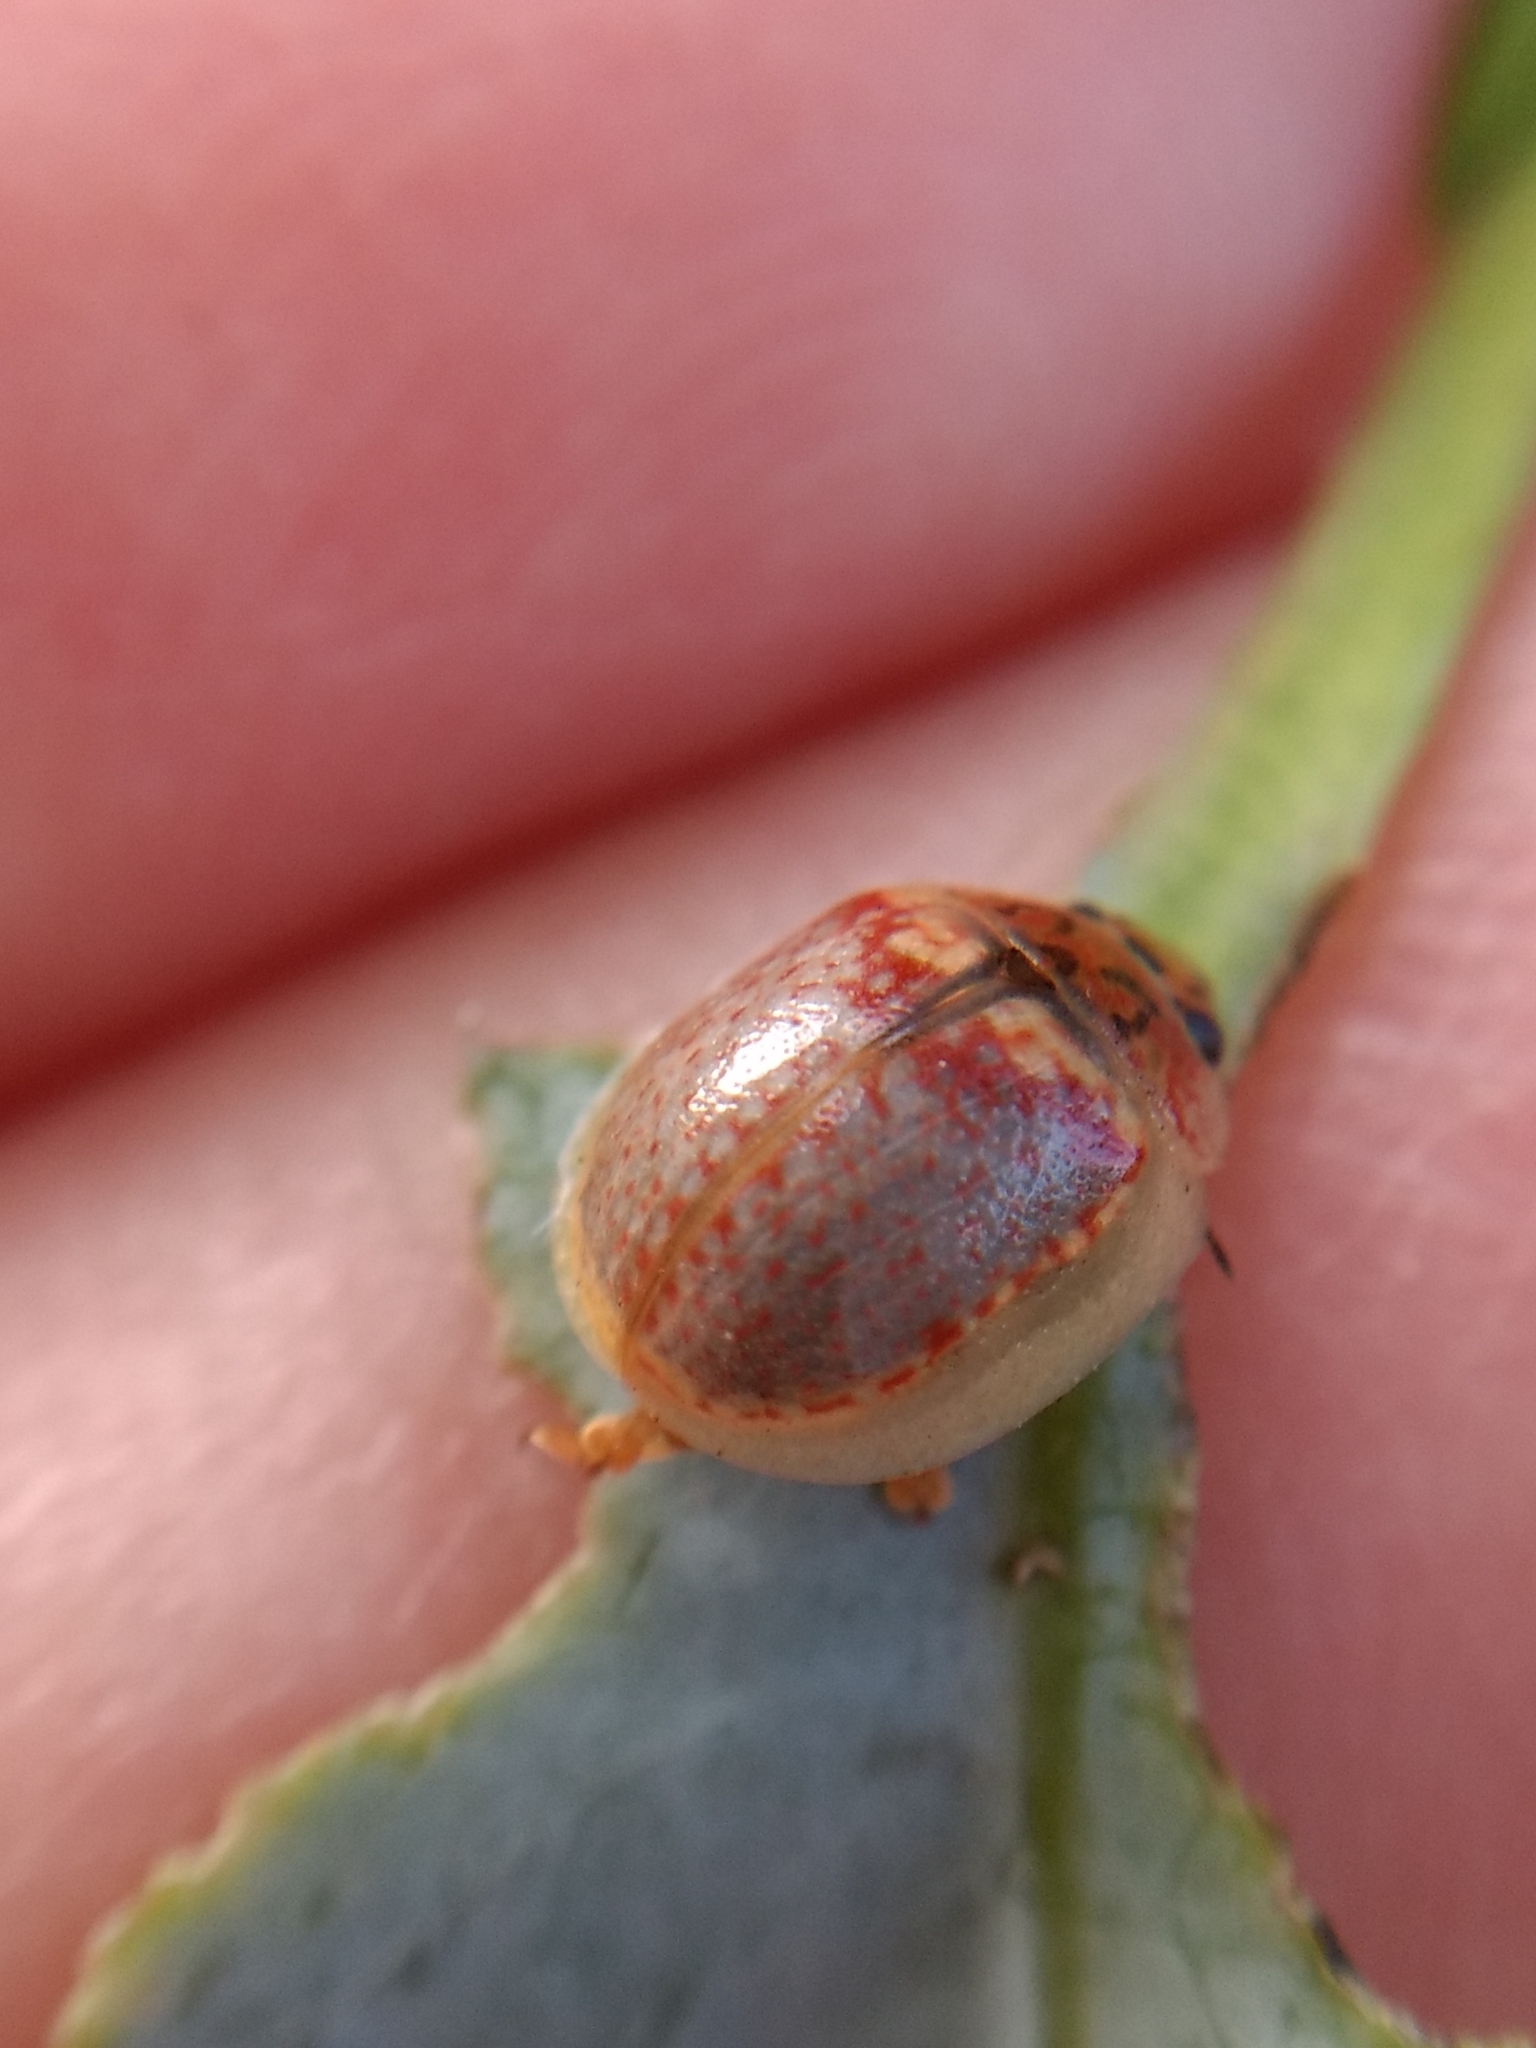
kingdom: Animalia
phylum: Arthropoda
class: Insecta
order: Coleoptera
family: Chrysomelidae
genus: Paropsisterna
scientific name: Paropsisterna m-fuscum
